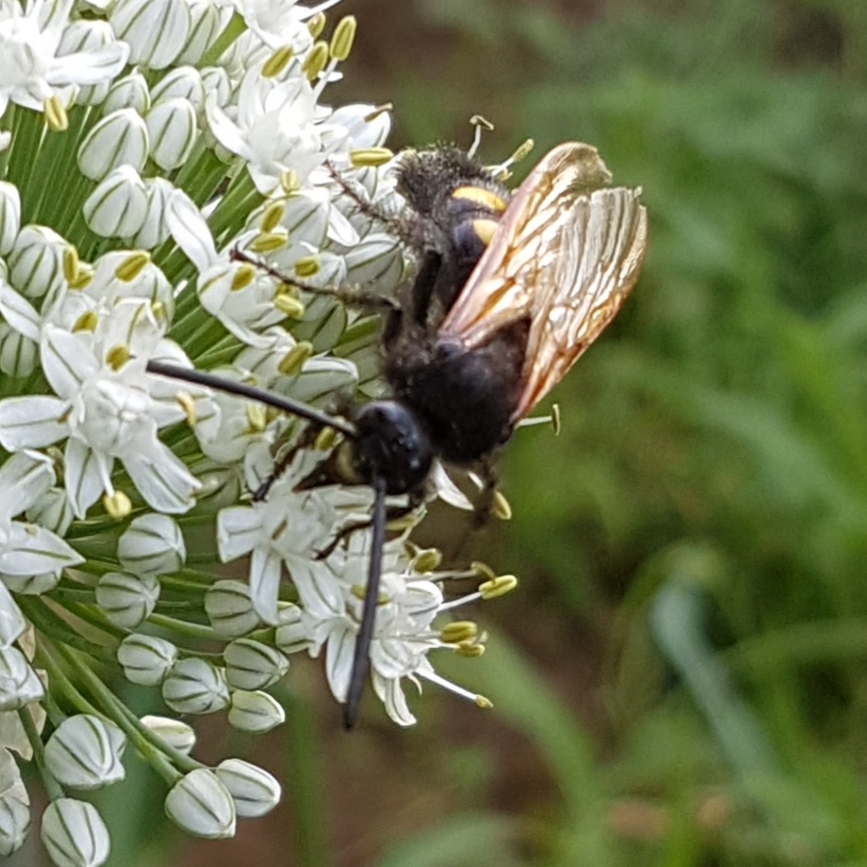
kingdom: Animalia
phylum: Arthropoda
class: Insecta
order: Hymenoptera
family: Scoliidae
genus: Megascolia
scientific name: Megascolia maculata
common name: Mammoth wasp
